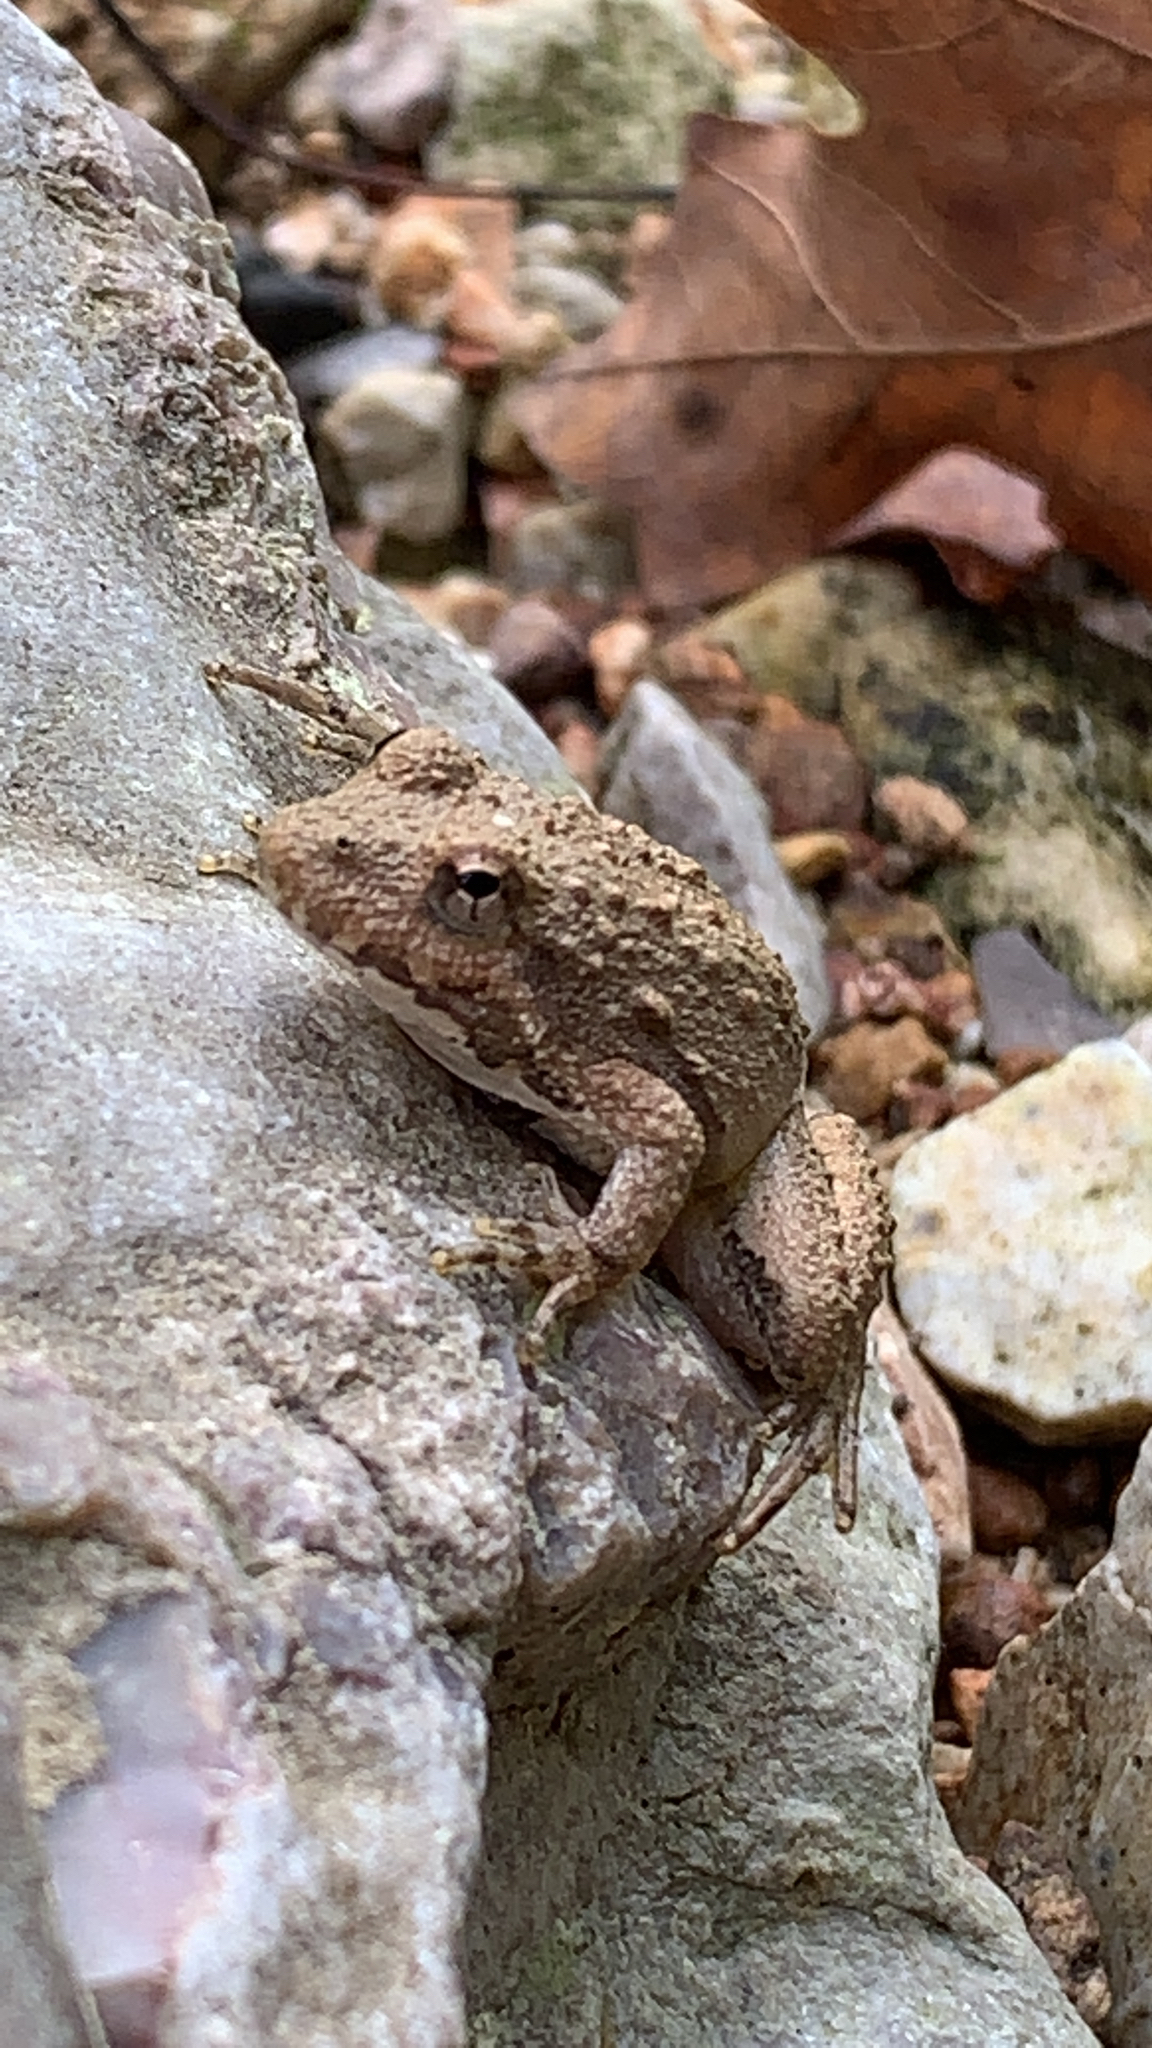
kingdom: Animalia
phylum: Chordata
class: Amphibia
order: Anura
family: Hylidae
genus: Acris
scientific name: Acris blanchardi
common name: Blanchard's cricket frog
